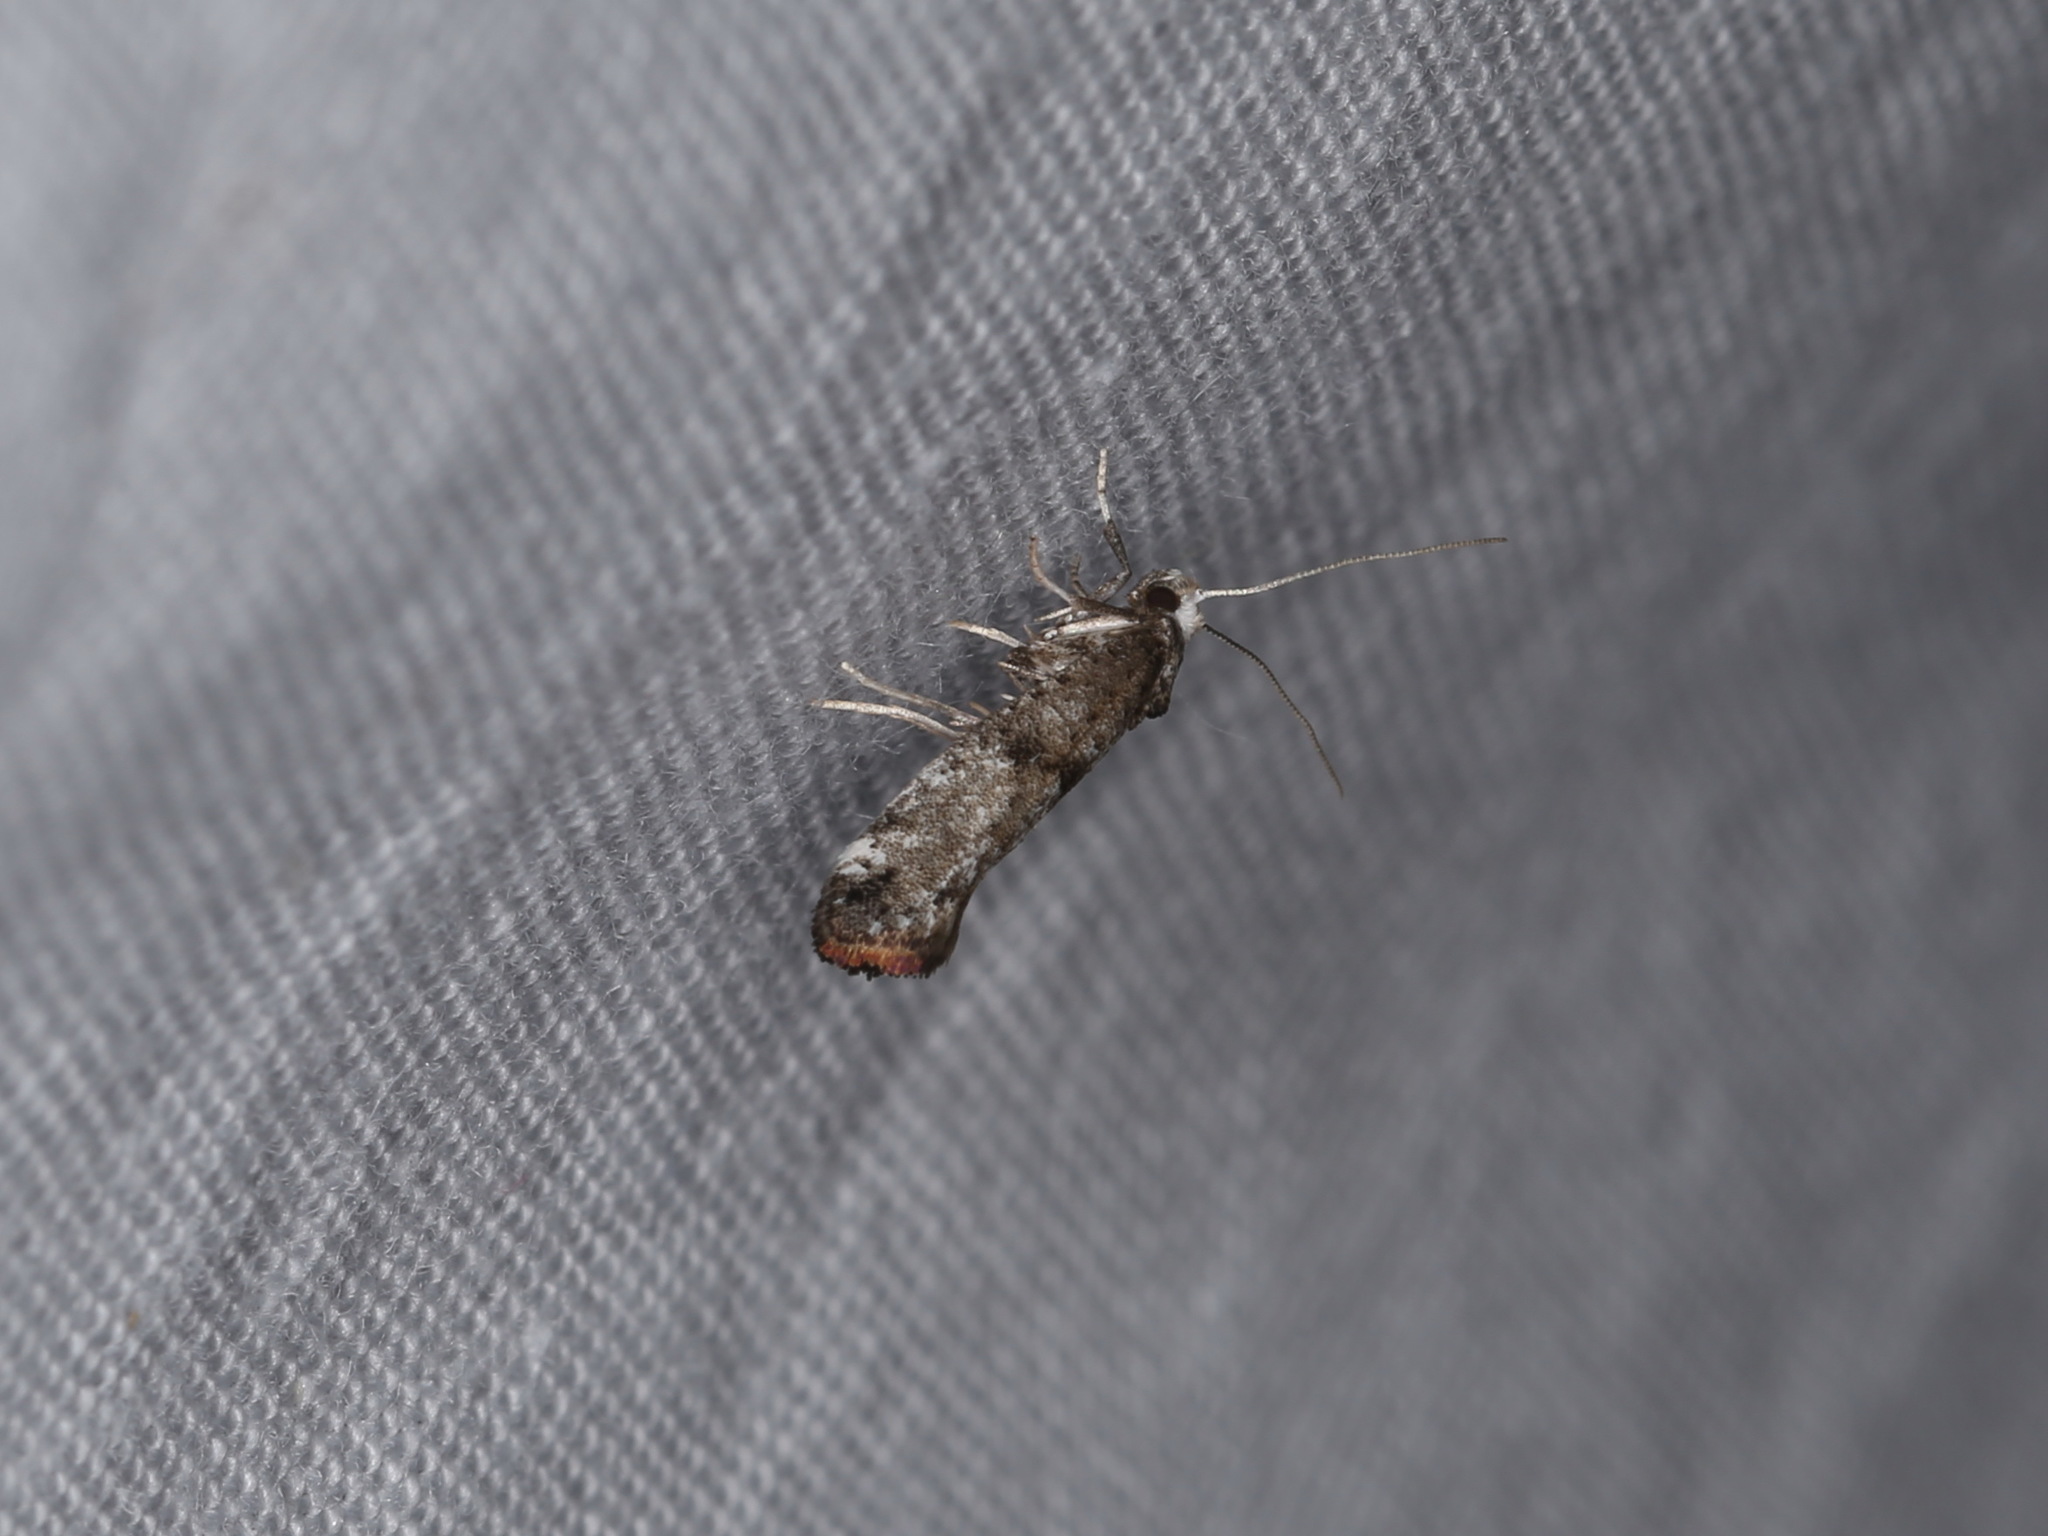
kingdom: Animalia
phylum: Arthropoda
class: Insecta
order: Lepidoptera
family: Yponomeutidae
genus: Swammerdamia
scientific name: Swammerdamia pyrella
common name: Little ermine moth
